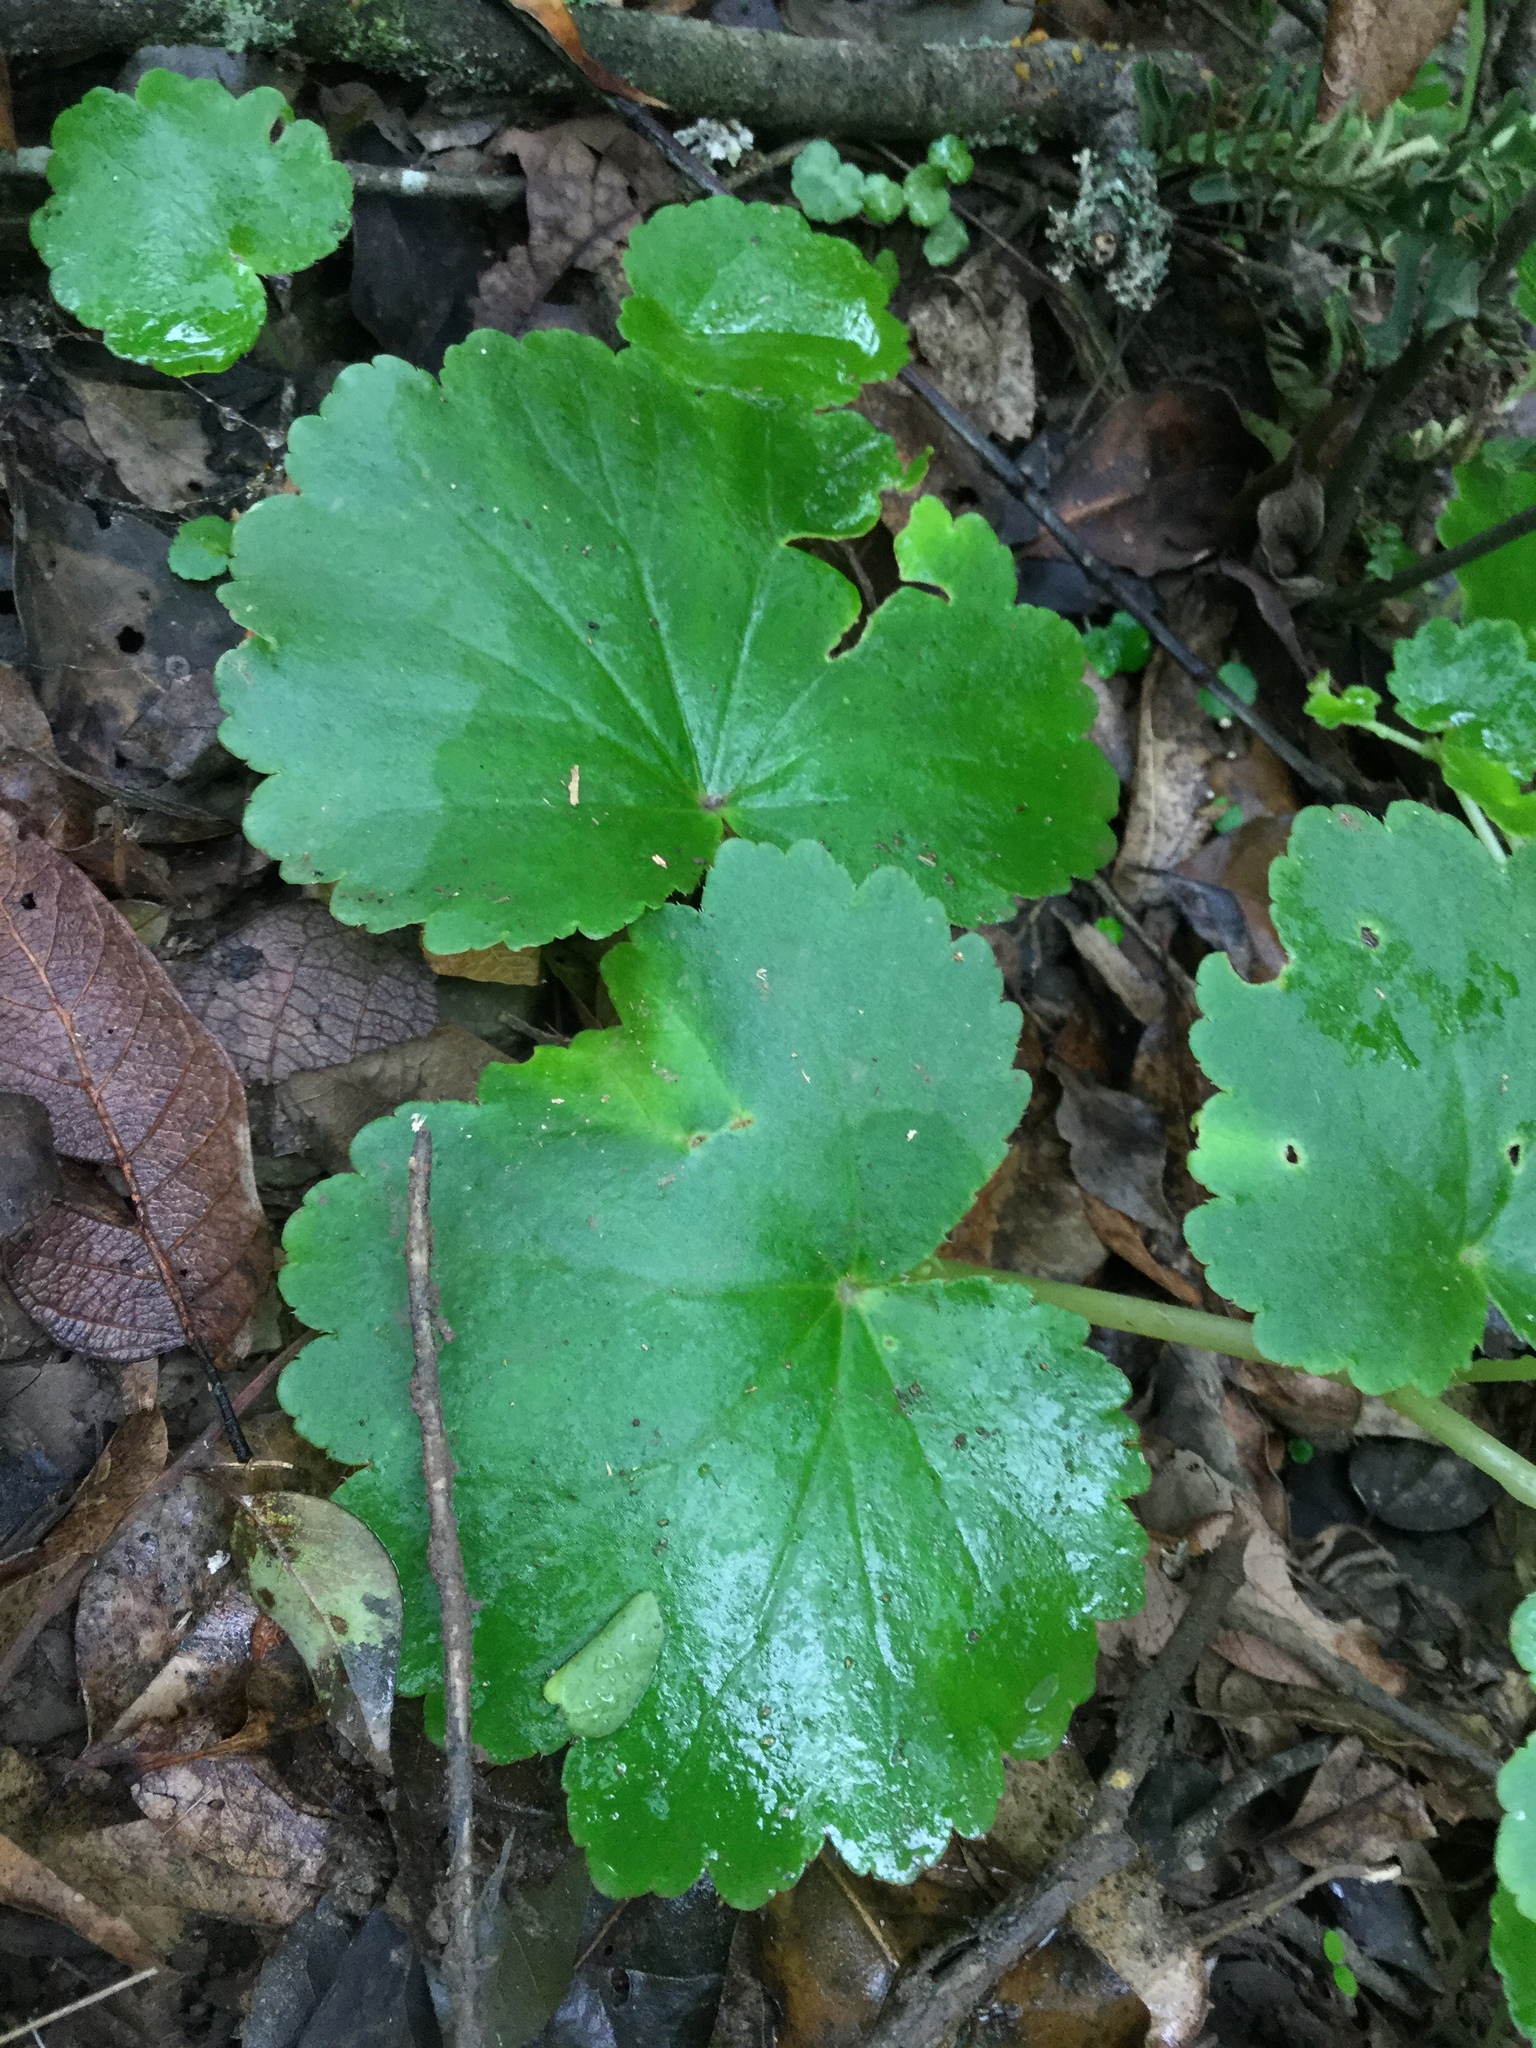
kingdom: Plantae
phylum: Tracheophyta
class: Magnoliopsida
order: Cucurbitales
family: Begoniaceae
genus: Begonia
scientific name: Begonia uniflora
